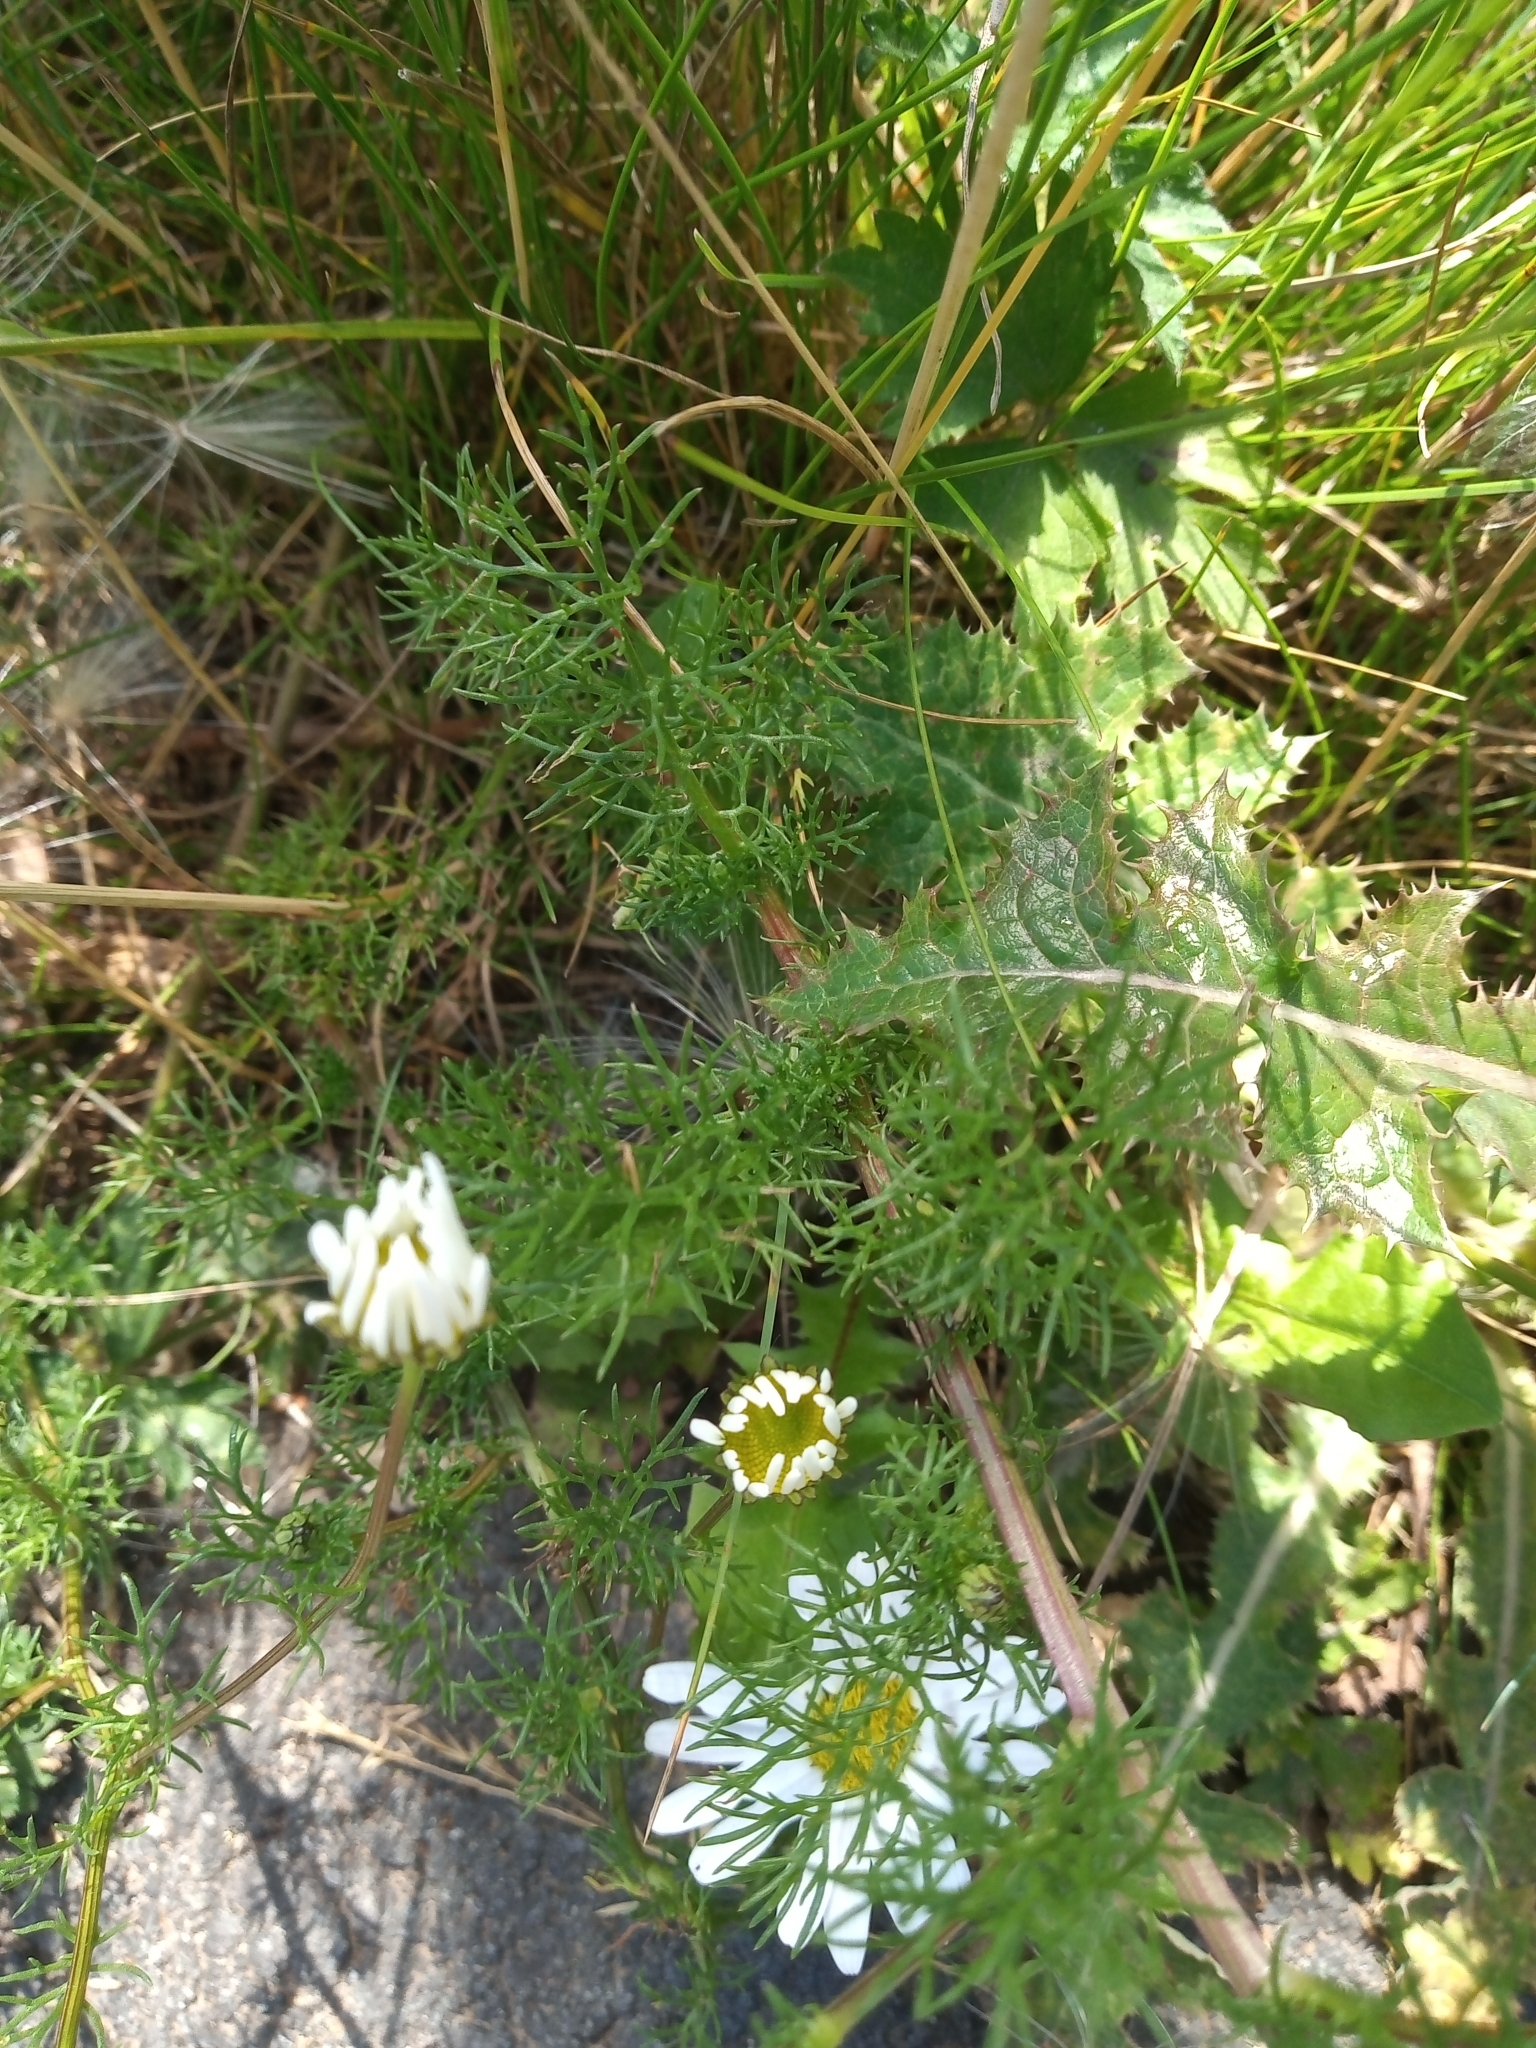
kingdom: Plantae
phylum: Tracheophyta
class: Magnoliopsida
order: Asterales
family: Asteraceae
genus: Tripleurospermum
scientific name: Tripleurospermum inodorum
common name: Scentless mayweed
